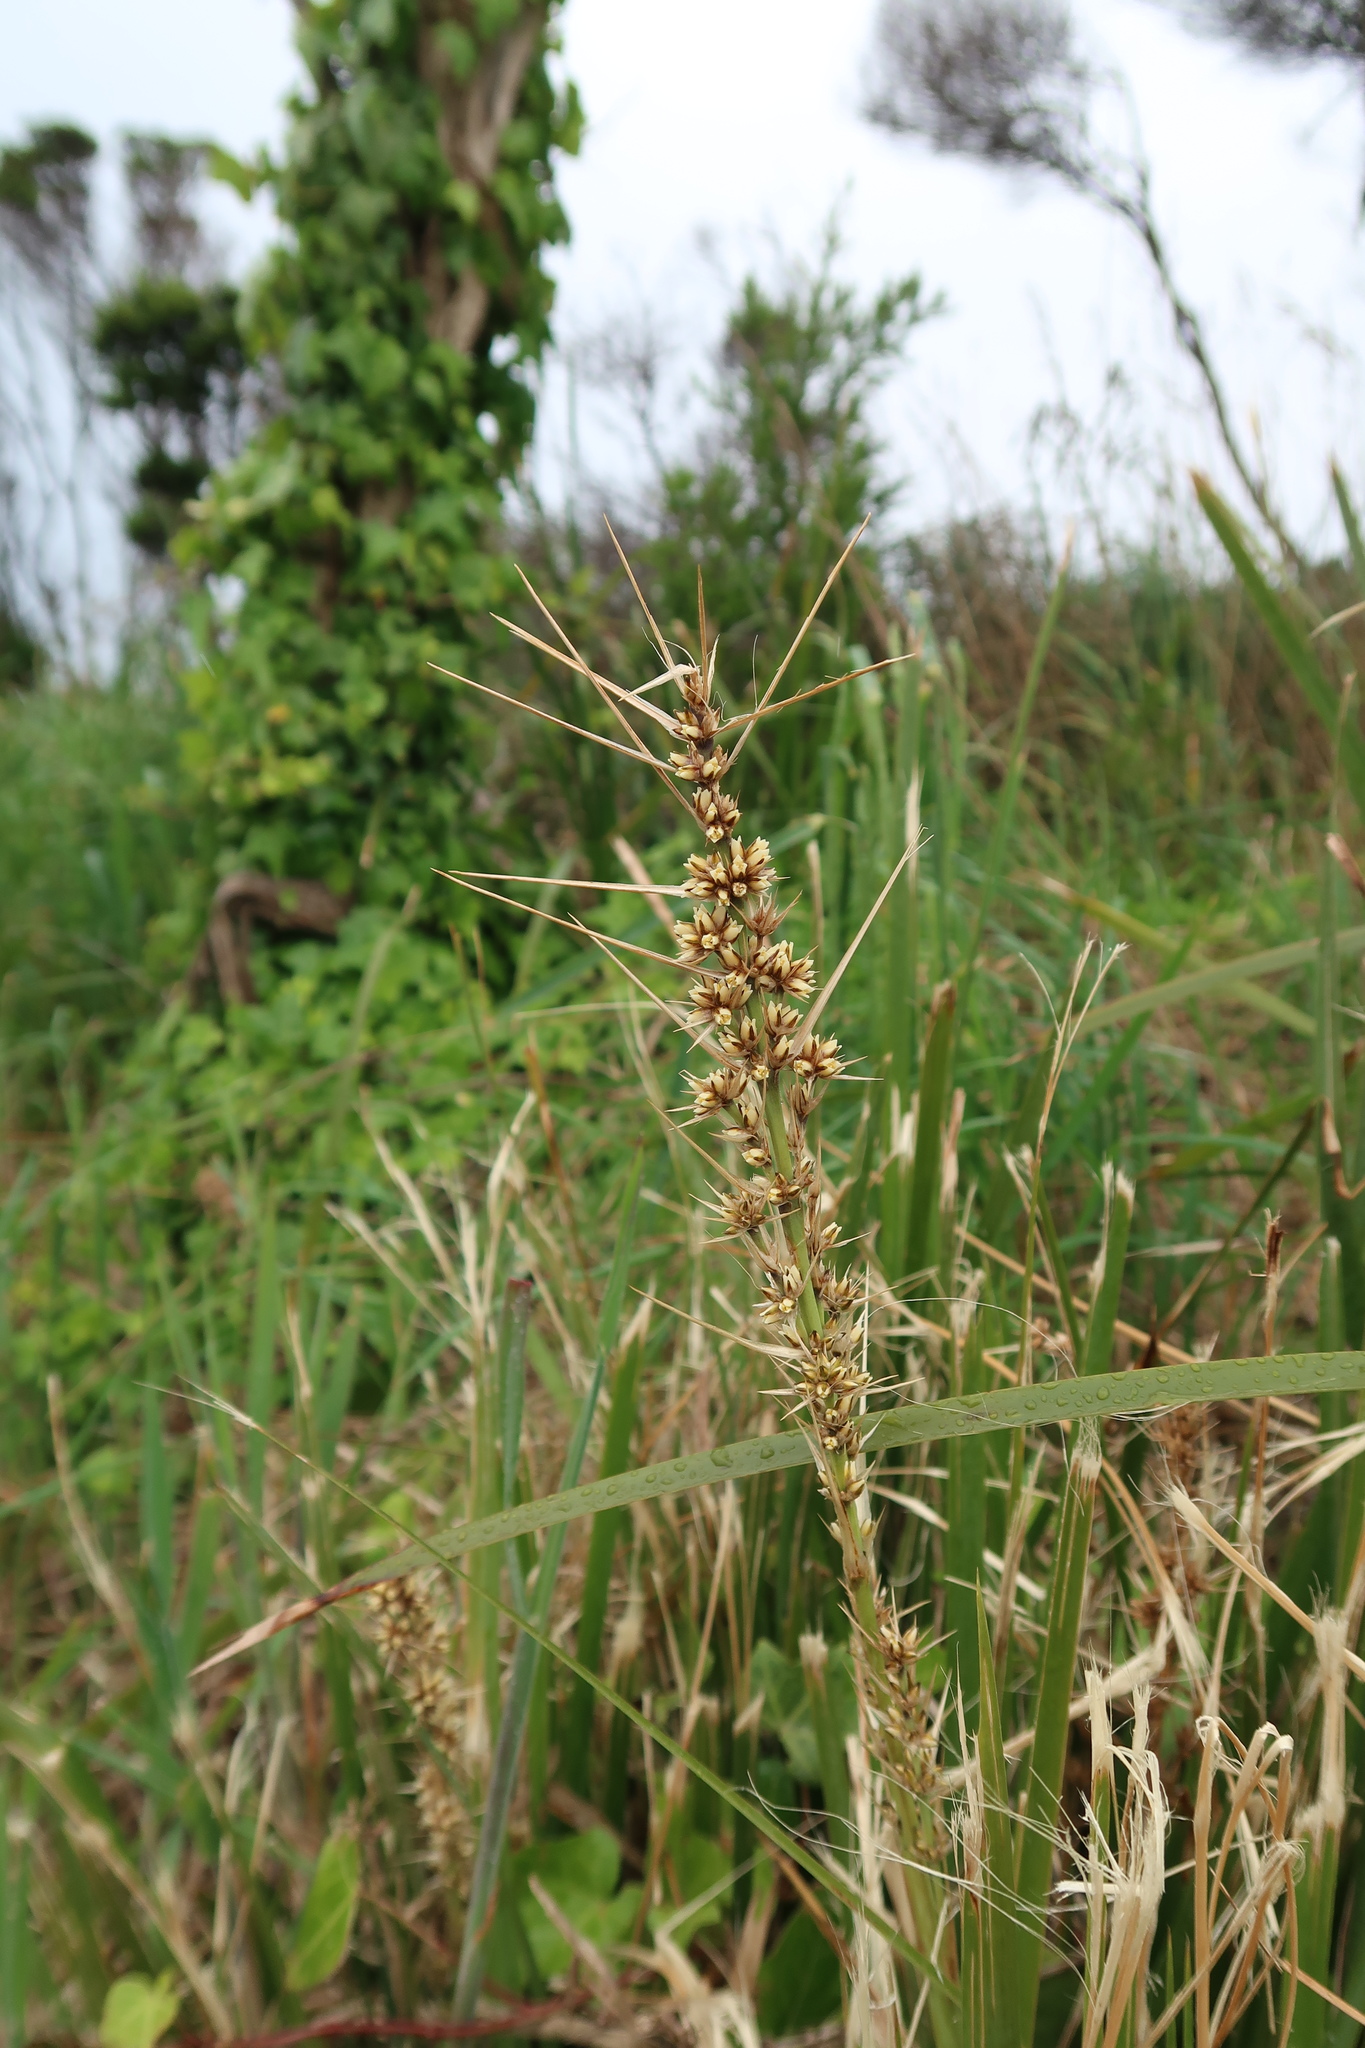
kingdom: Plantae
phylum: Tracheophyta
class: Liliopsida
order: Asparagales
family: Asparagaceae
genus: Lomandra
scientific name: Lomandra longifolia
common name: Longleaf mat-rush
